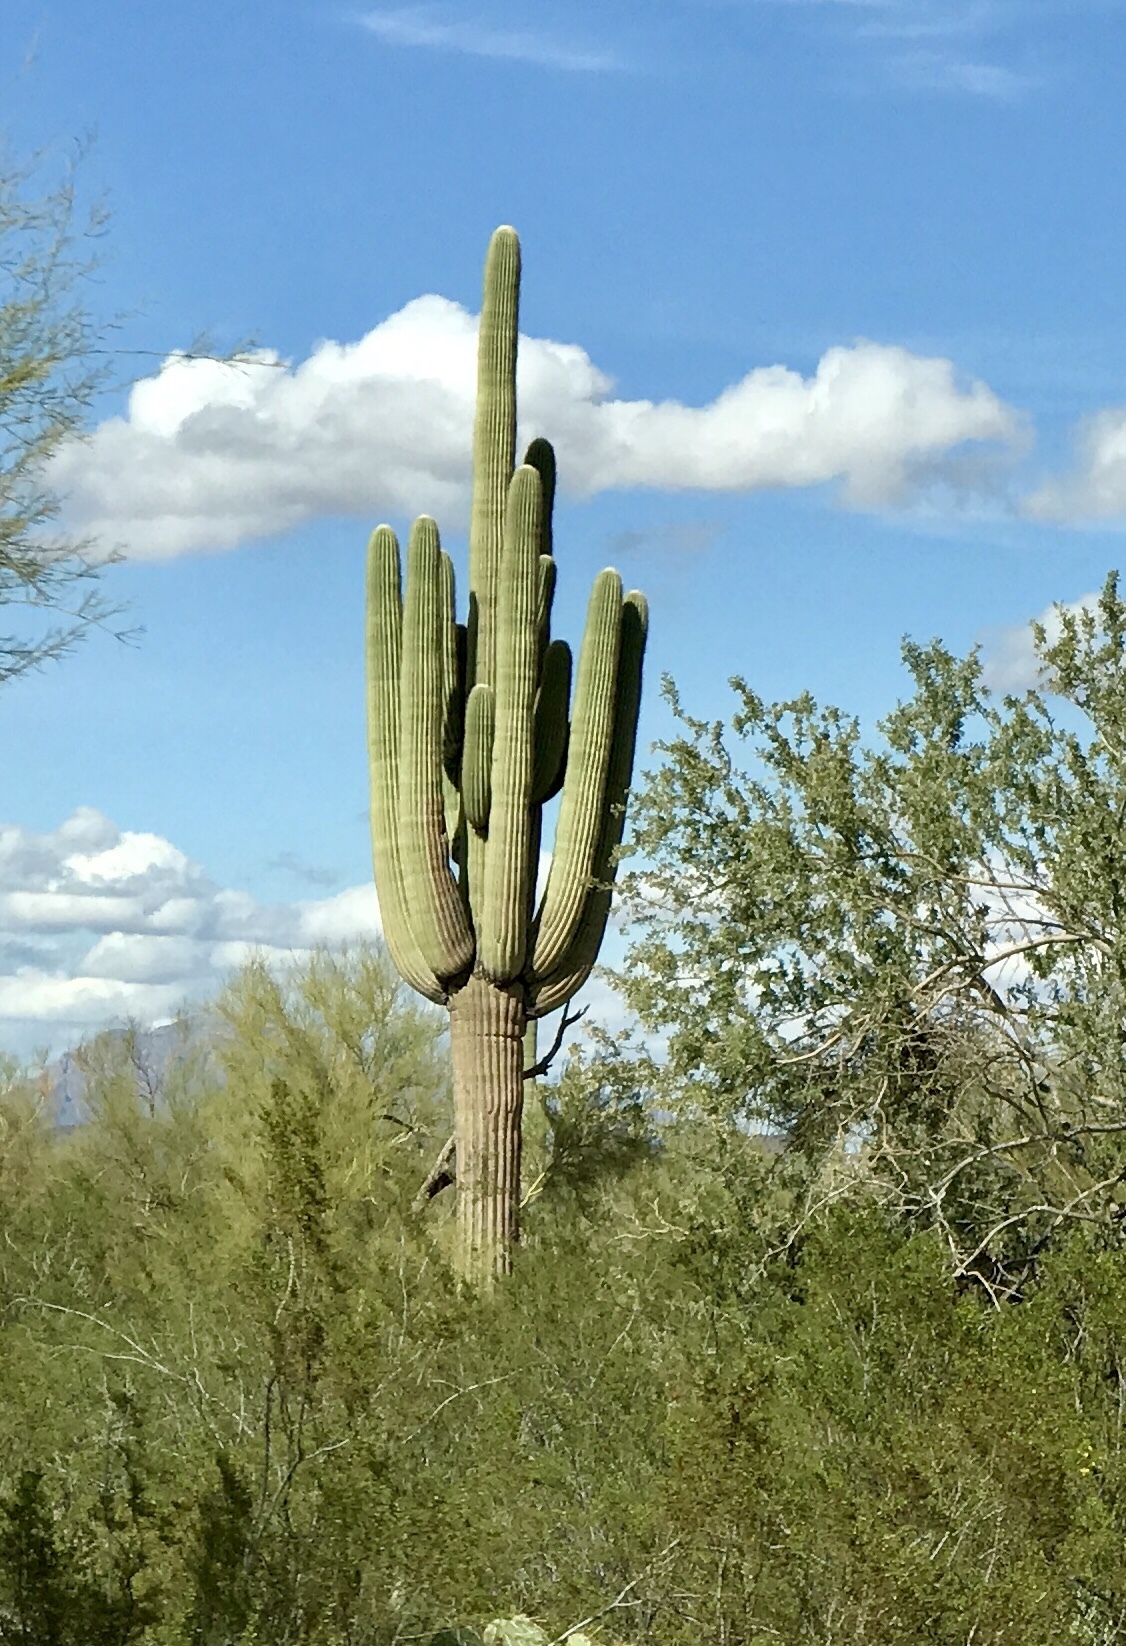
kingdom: Plantae
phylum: Tracheophyta
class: Magnoliopsida
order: Caryophyllales
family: Cactaceae
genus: Carnegiea
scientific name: Carnegiea gigantea
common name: Saguaro
